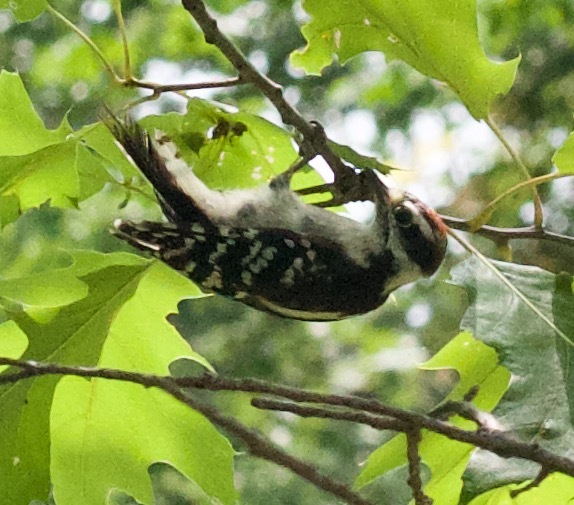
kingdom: Animalia
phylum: Chordata
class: Aves
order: Piciformes
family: Picidae
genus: Dryobates
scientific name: Dryobates pubescens
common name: Downy woodpecker
